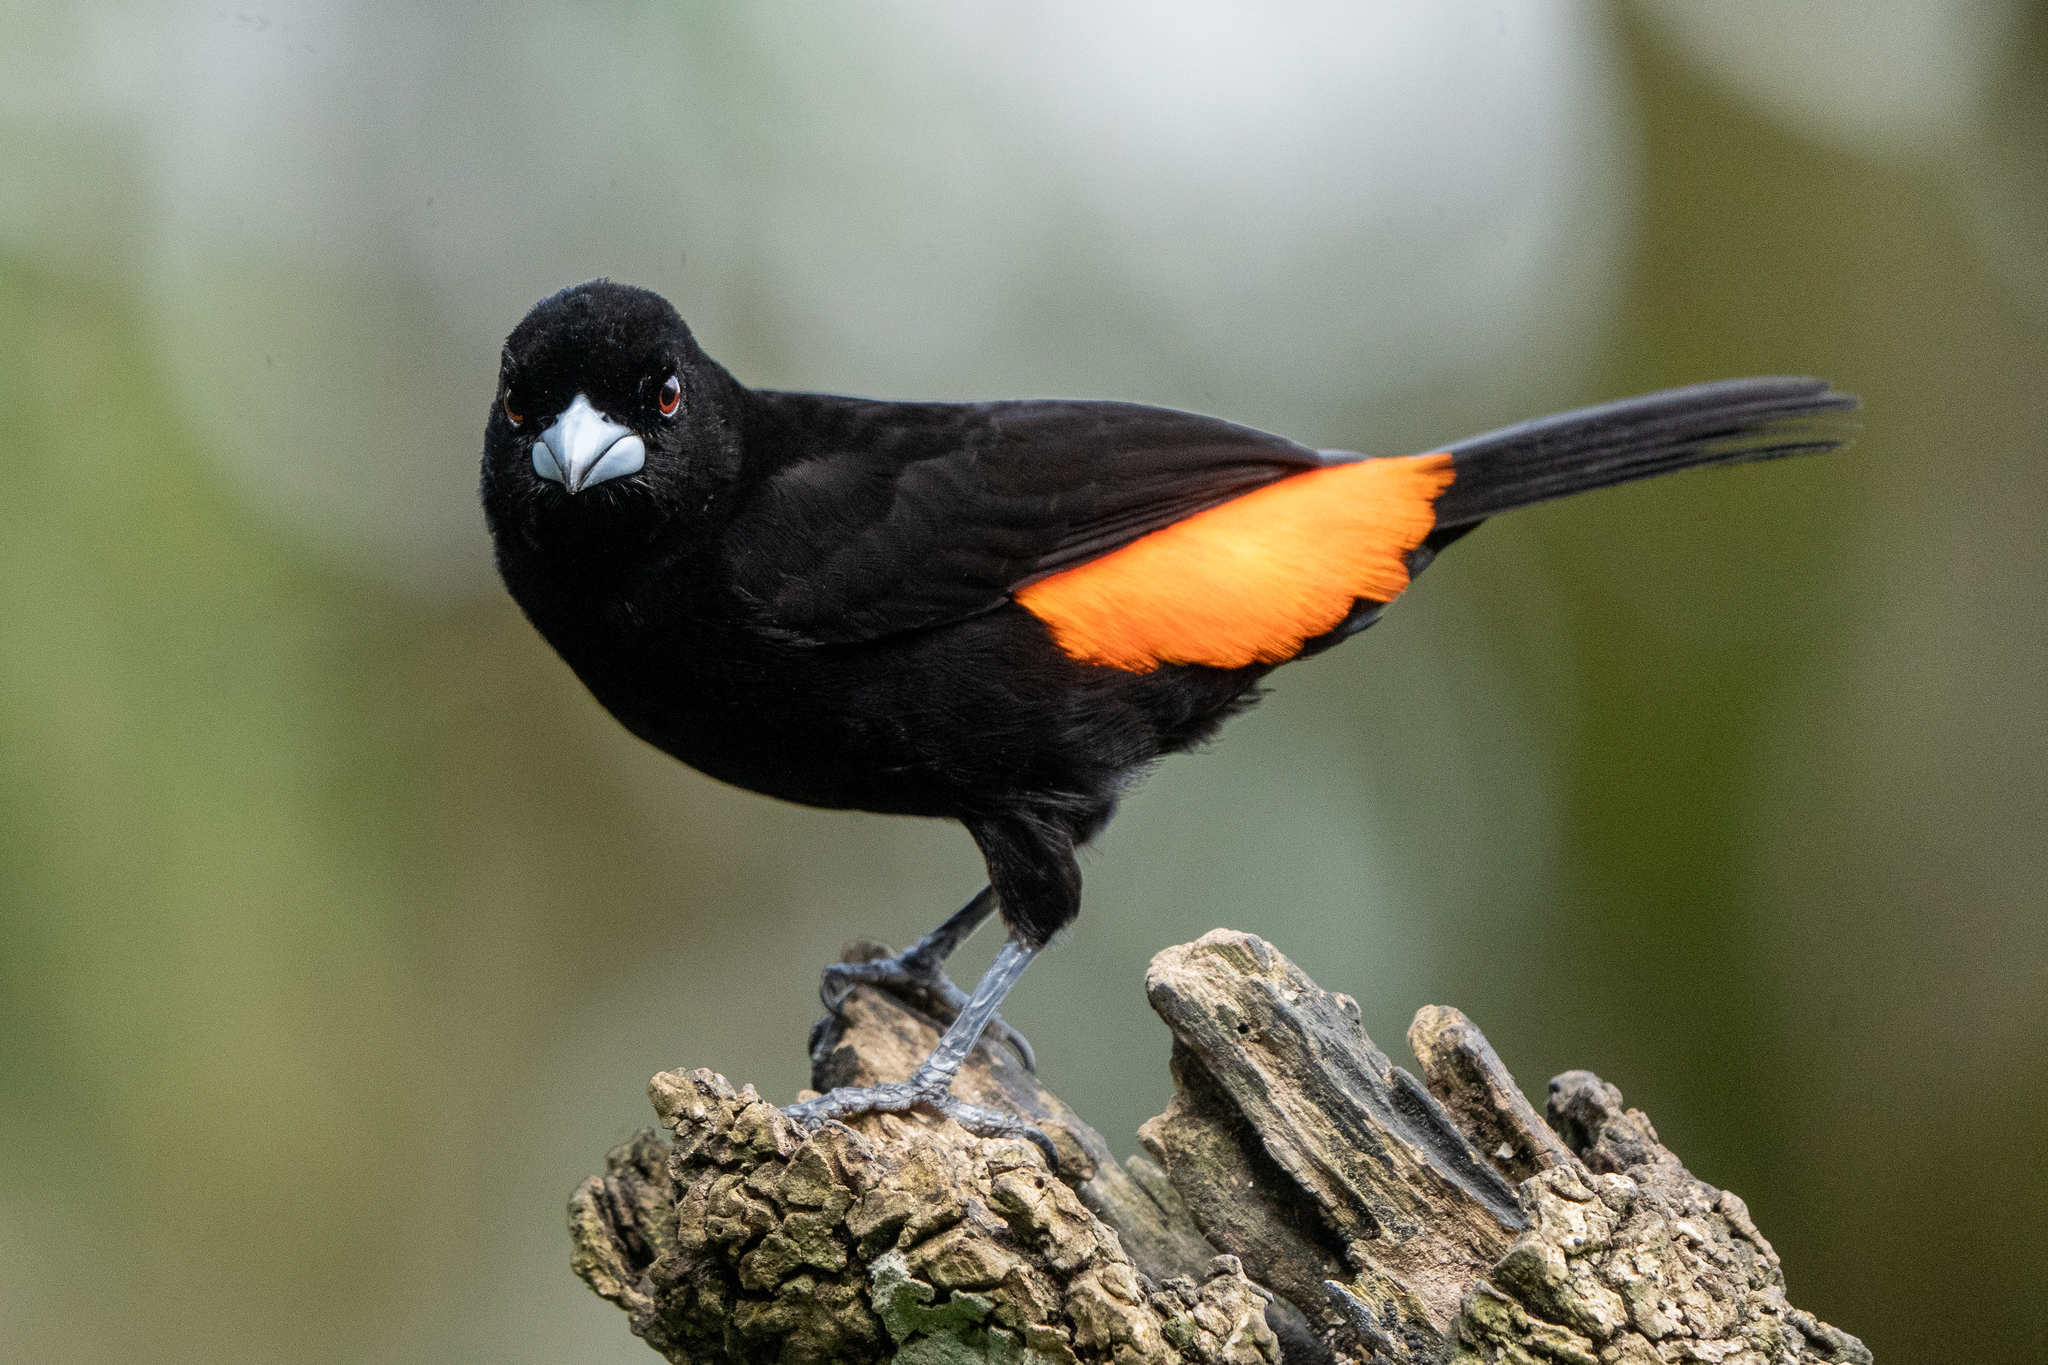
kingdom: Animalia
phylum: Chordata
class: Aves
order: Passeriformes
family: Thraupidae
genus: Ramphocelus
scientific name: Ramphocelus flammigerus
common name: Flame-rumped tanager
